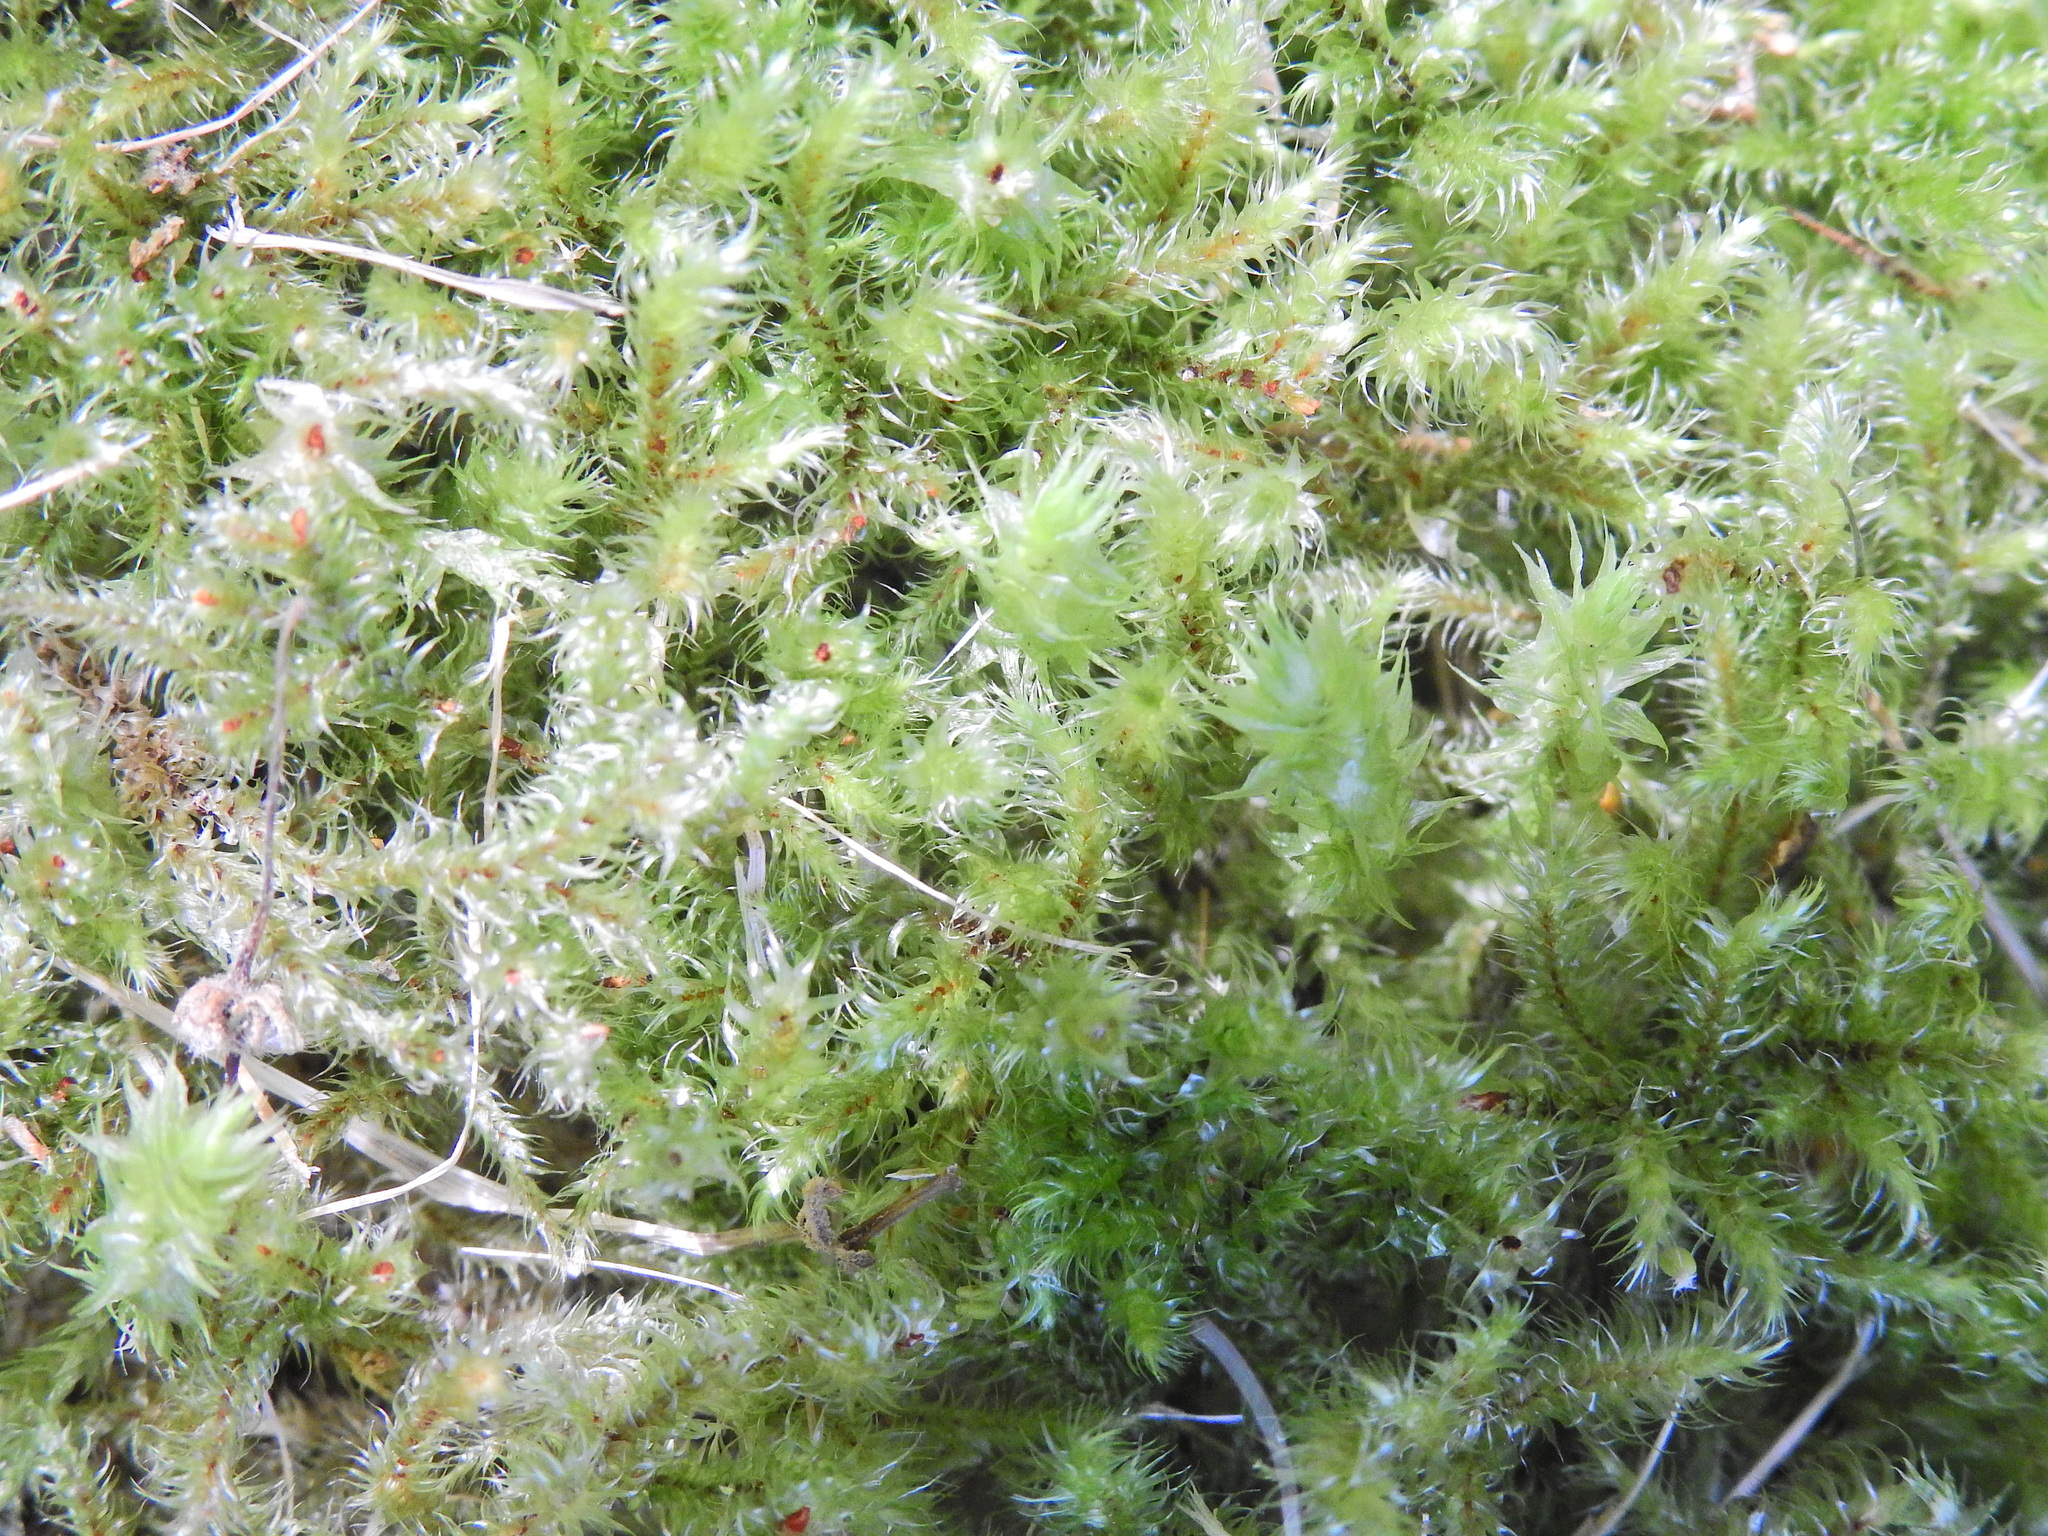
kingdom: Plantae
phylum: Bryophyta
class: Bryopsida
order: Hypnales
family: Hylocomiaceae
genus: Rhytidiadelphus
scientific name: Rhytidiadelphus loreus
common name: Lanky moss
